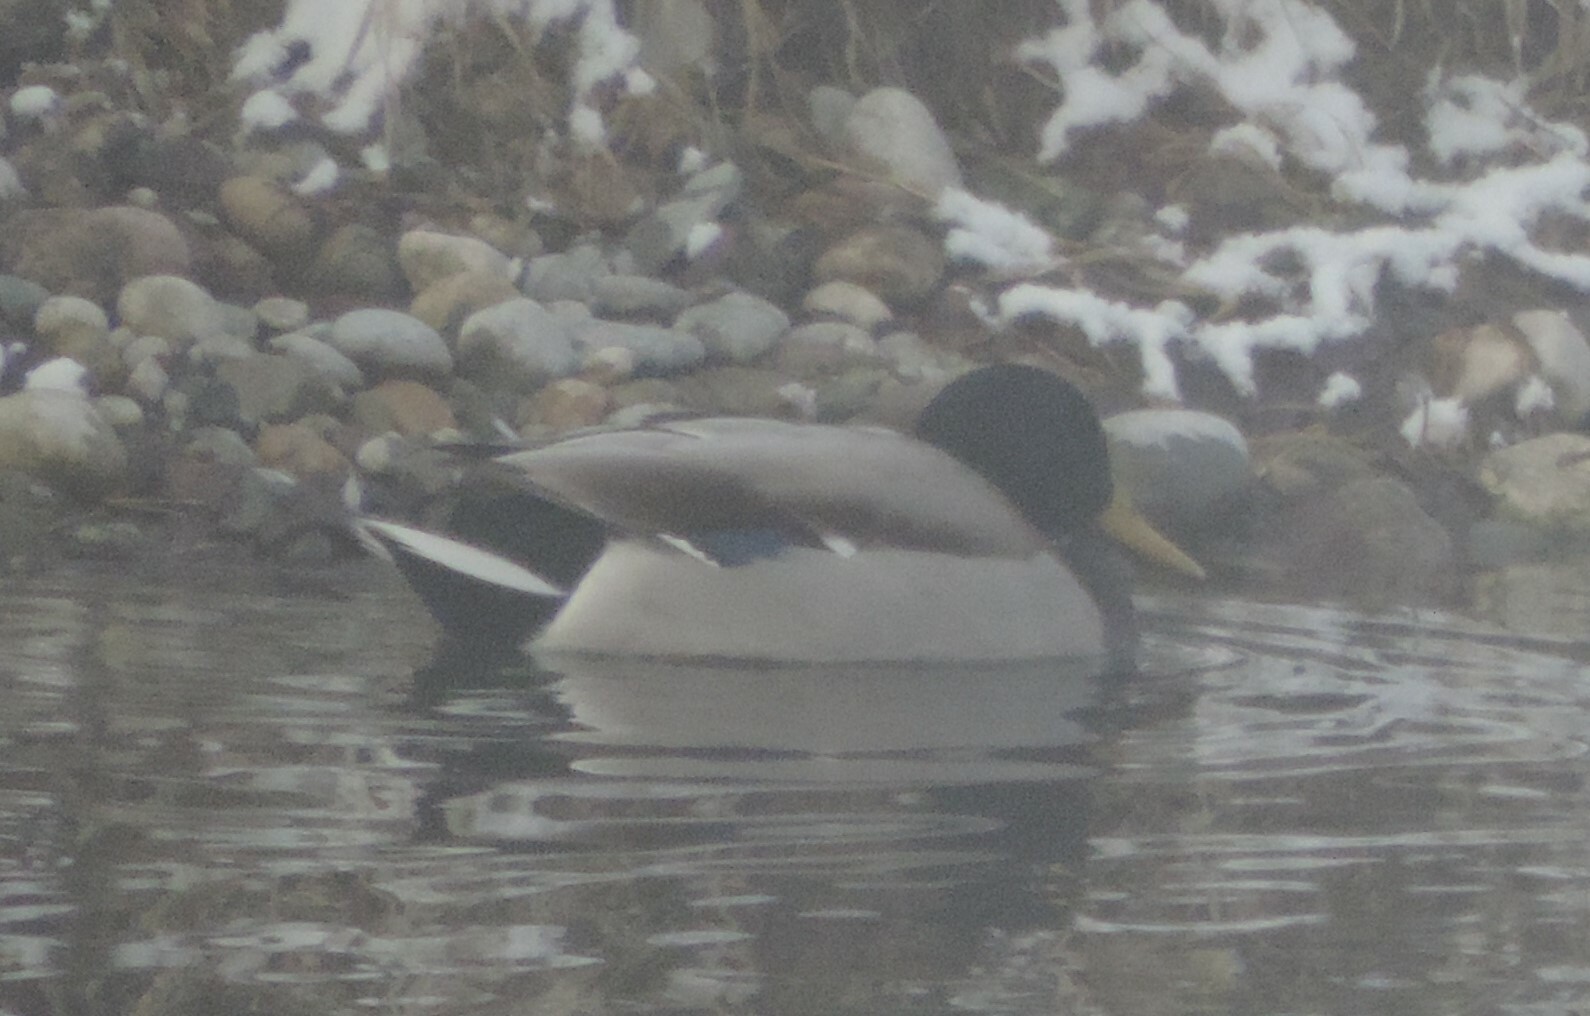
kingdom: Animalia
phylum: Chordata
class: Aves
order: Anseriformes
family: Anatidae
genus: Anas
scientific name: Anas platyrhynchos
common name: Mallard
